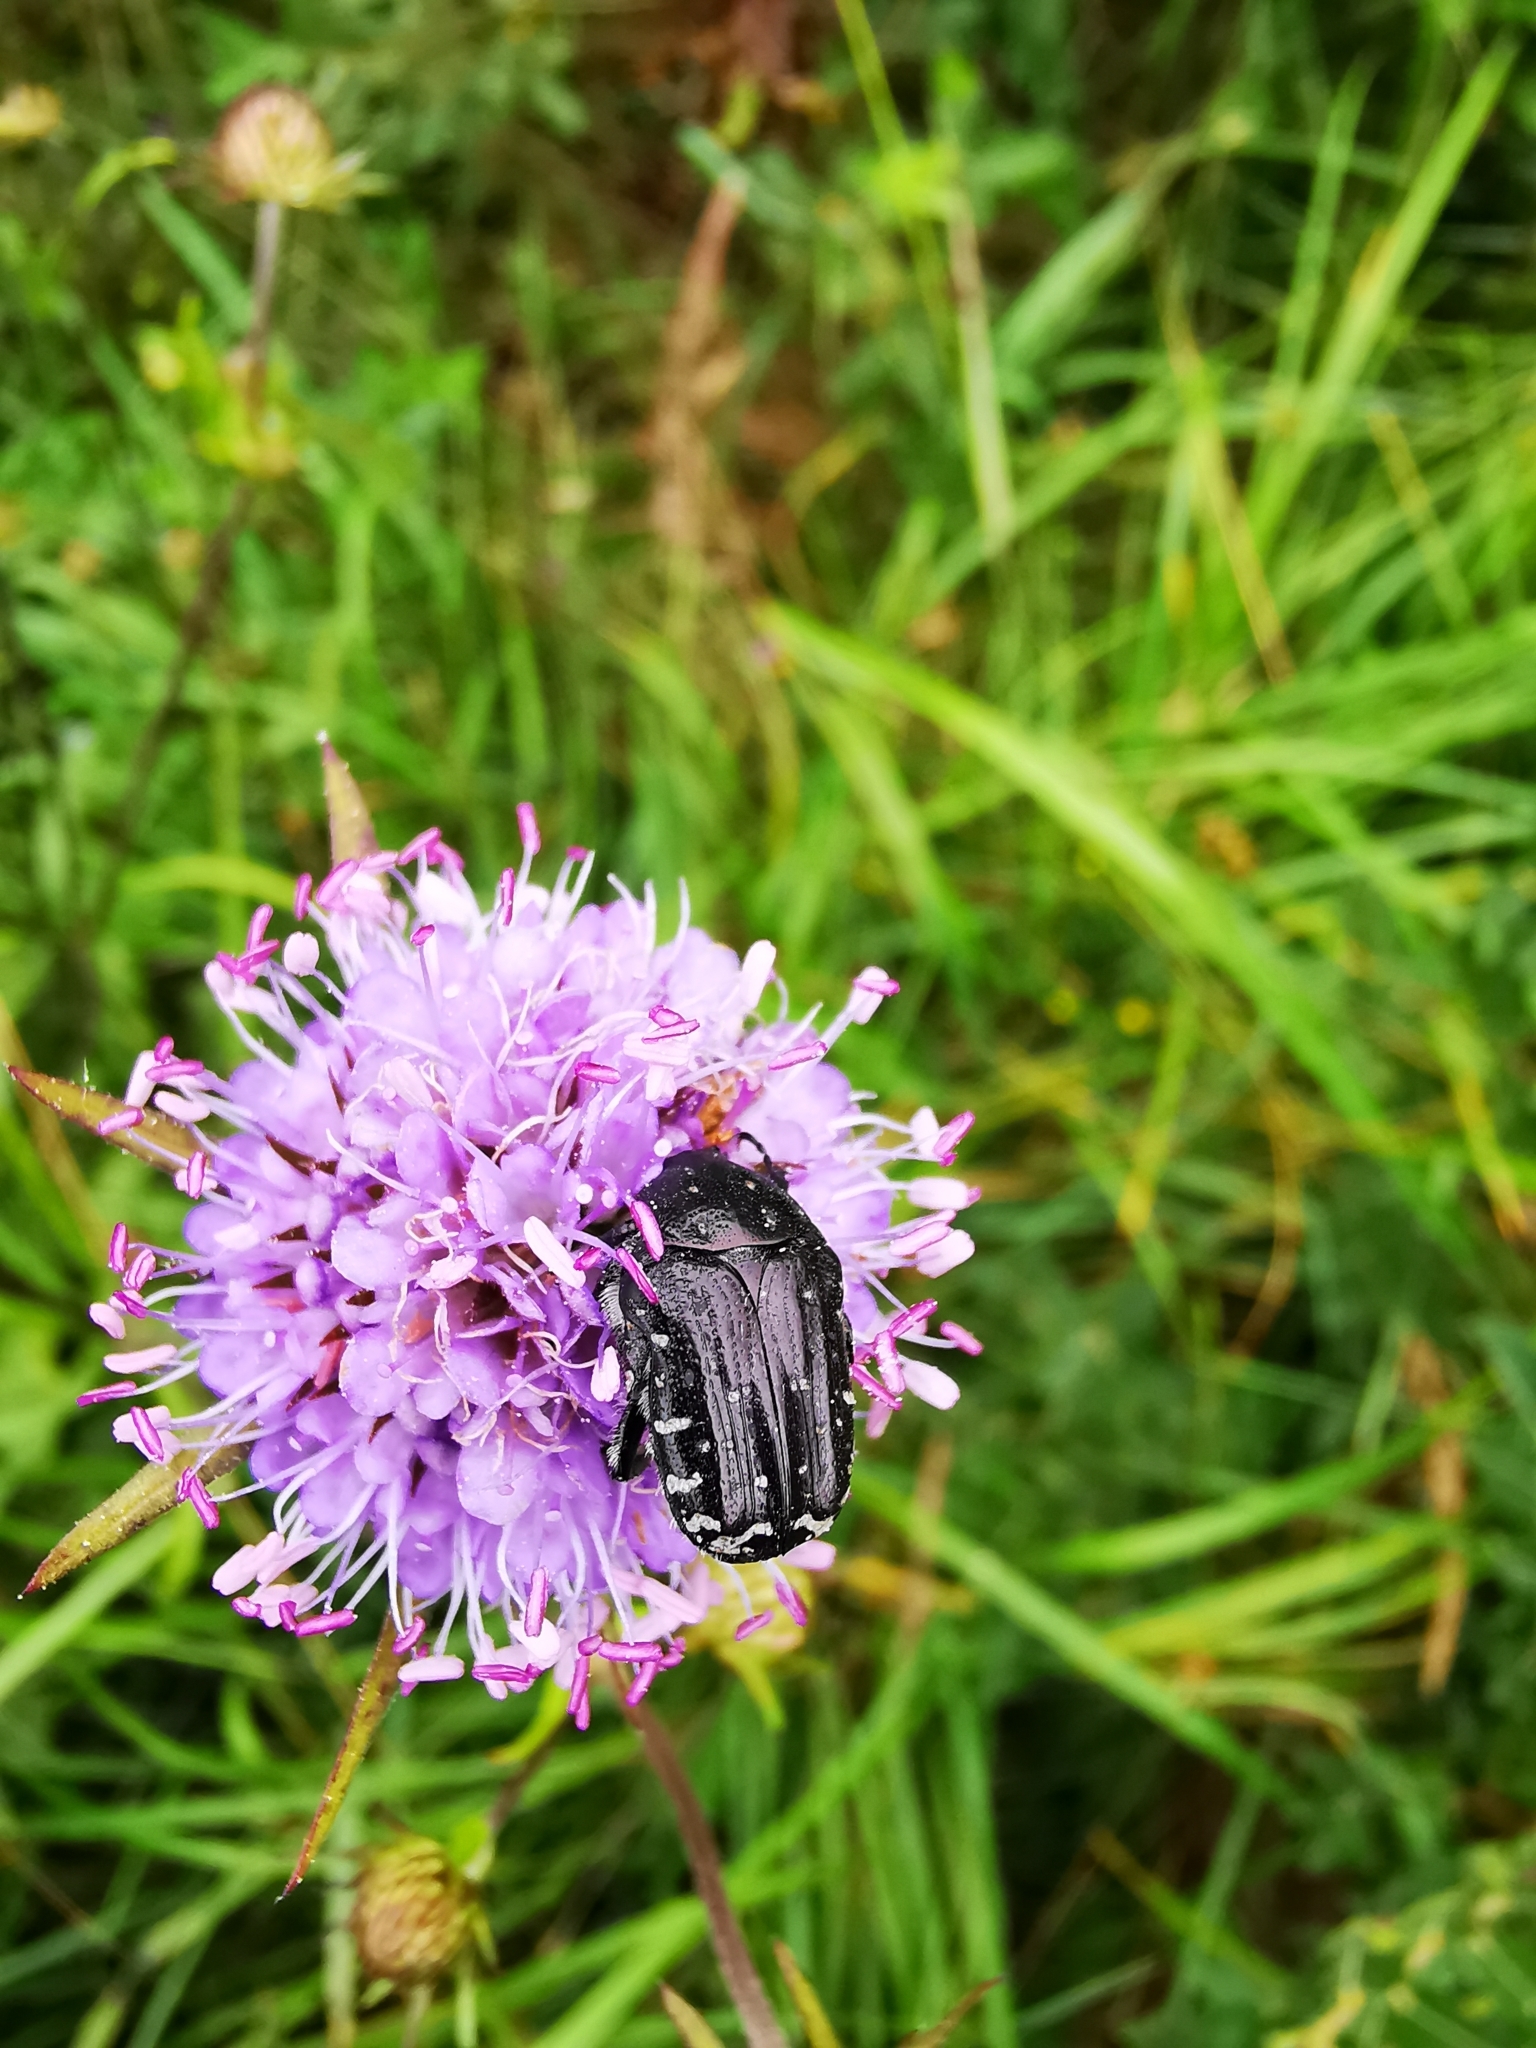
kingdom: Animalia
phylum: Arthropoda
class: Insecta
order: Coleoptera
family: Scarabaeidae
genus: Oxythyrea
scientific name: Oxythyrea funesta
